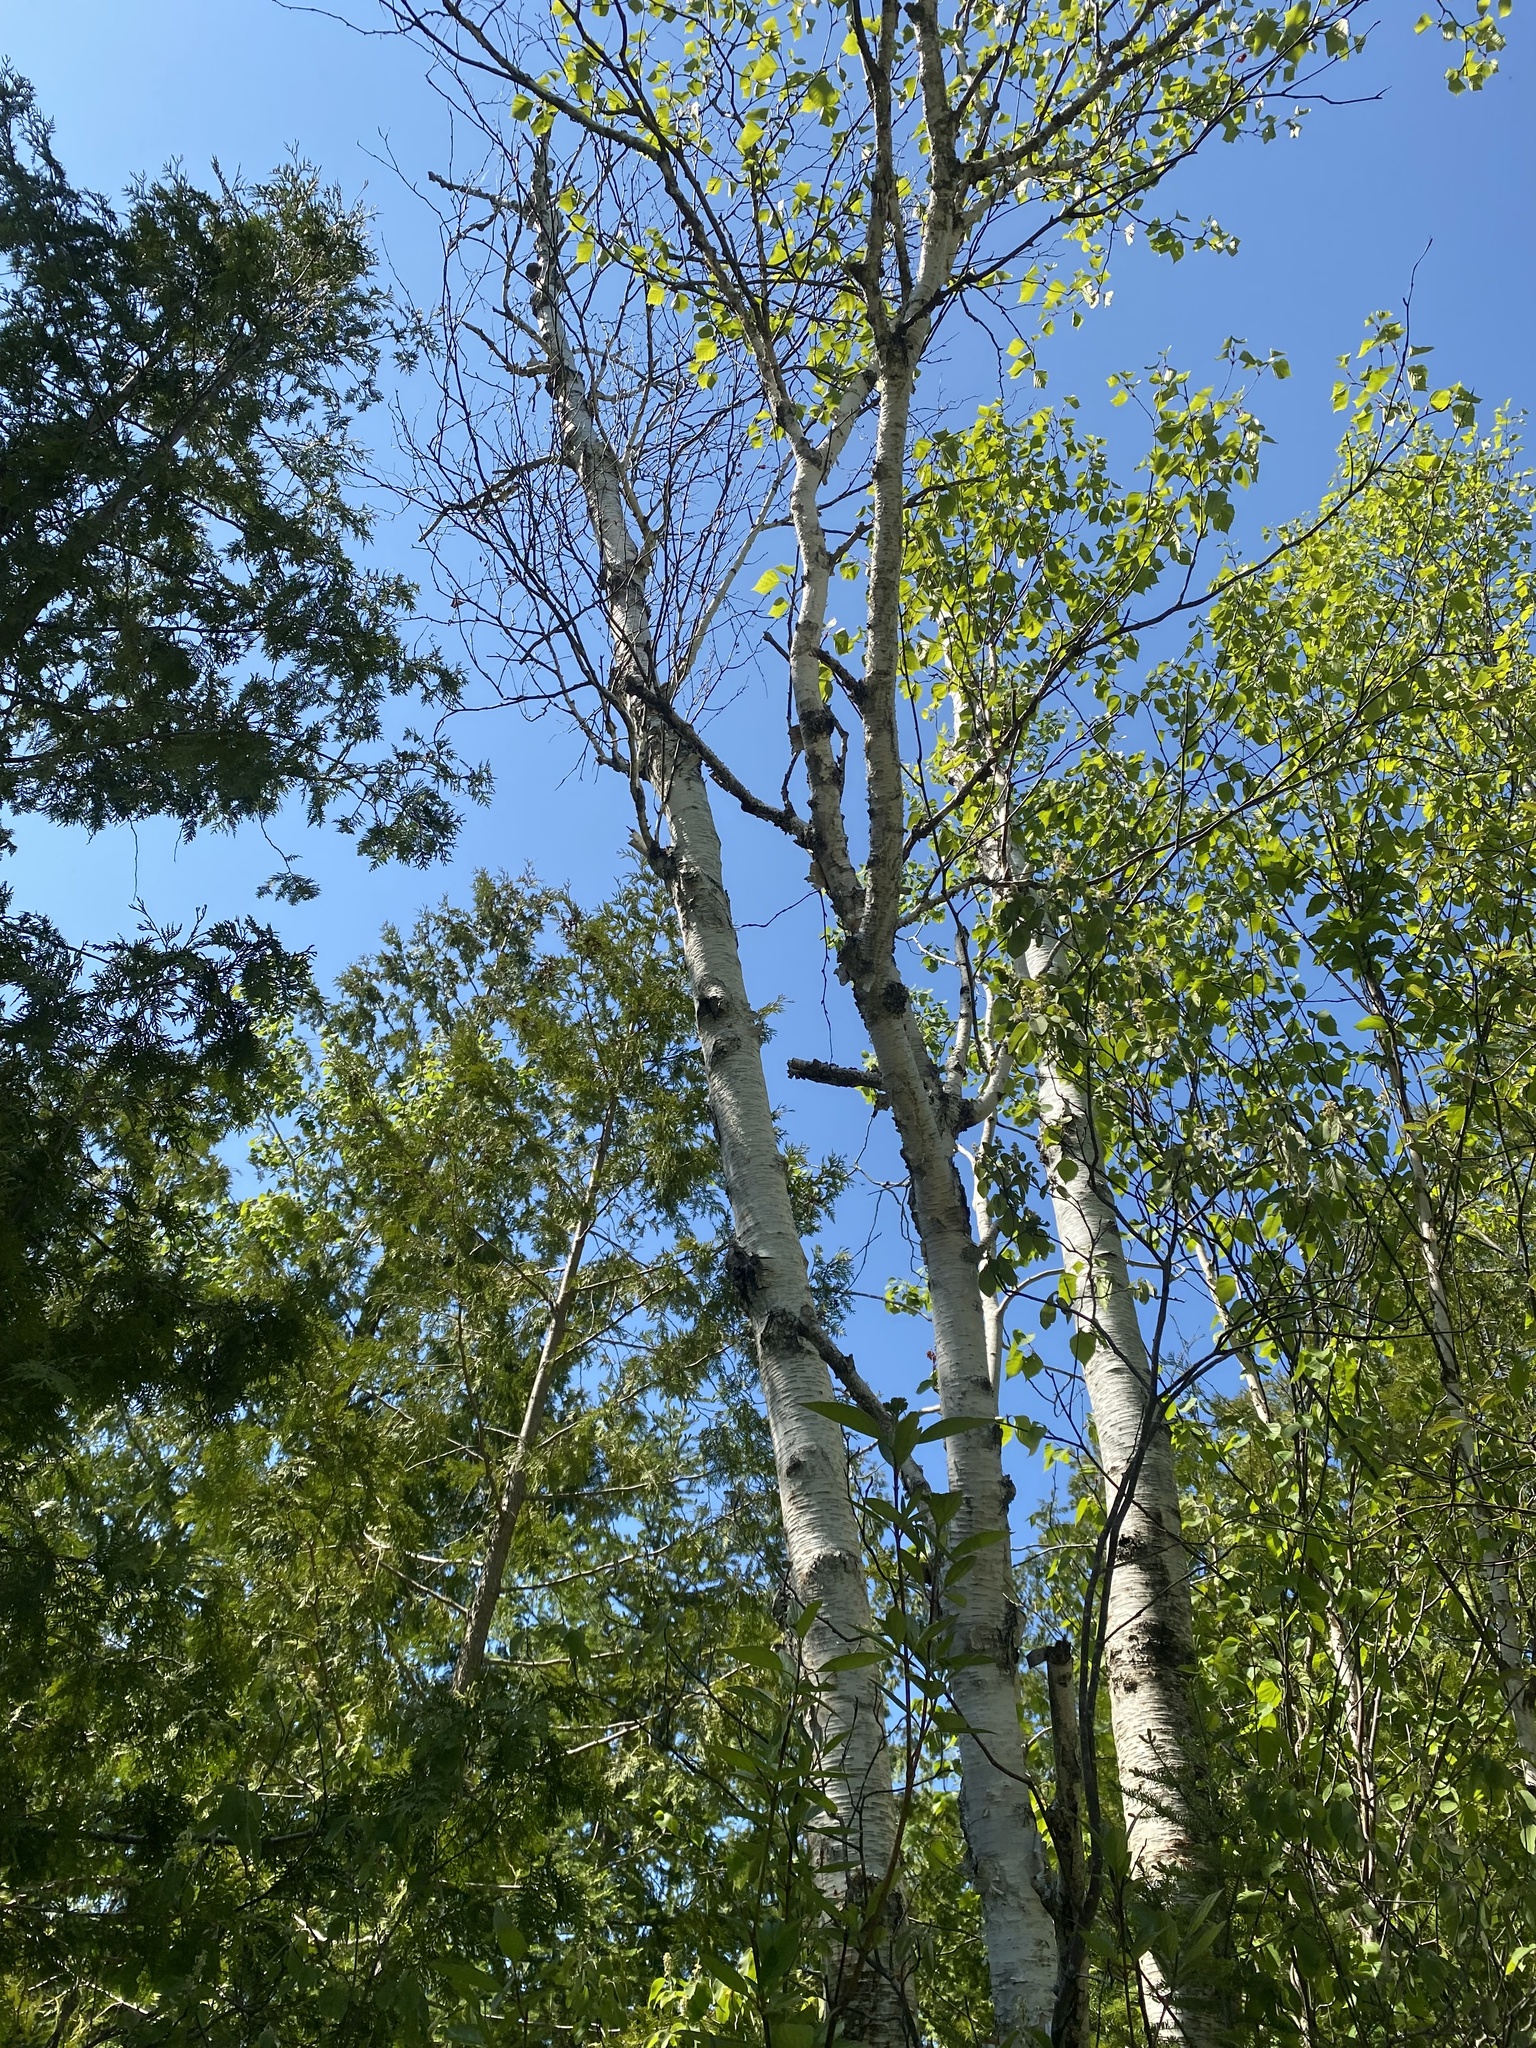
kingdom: Plantae
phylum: Tracheophyta
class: Magnoliopsida
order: Fagales
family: Betulaceae
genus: Betula
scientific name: Betula papyrifera
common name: Paper birch
